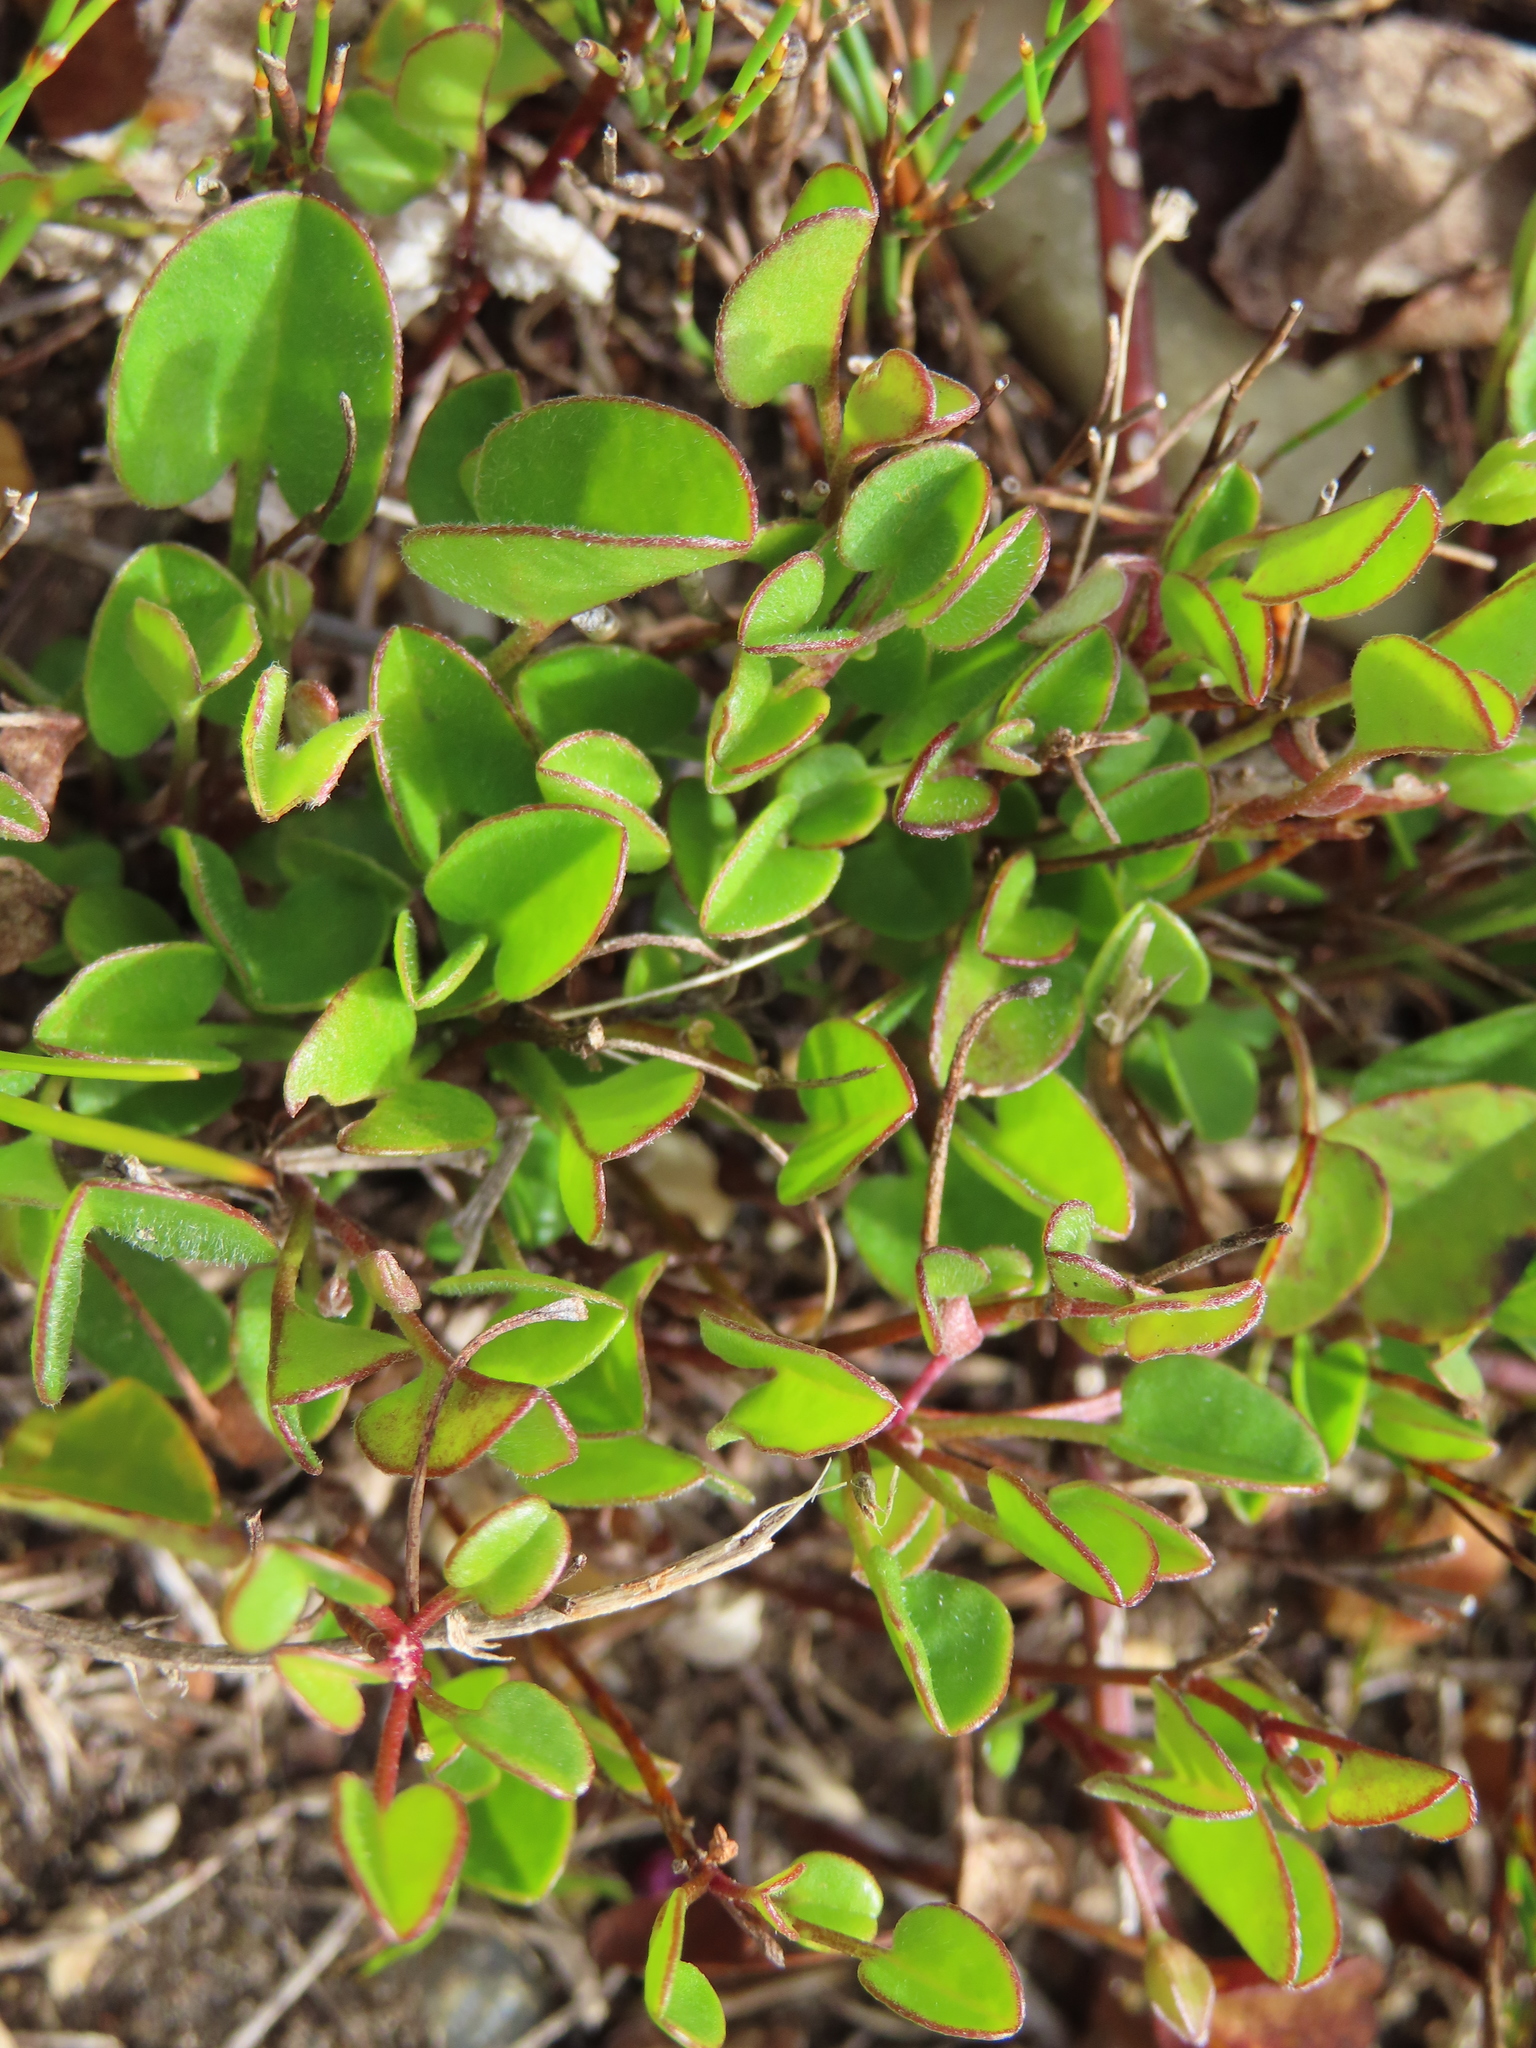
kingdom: Plantae
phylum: Tracheophyta
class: Magnoliopsida
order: Solanales
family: Convolvulaceae
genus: Falkia
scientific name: Falkia repens
